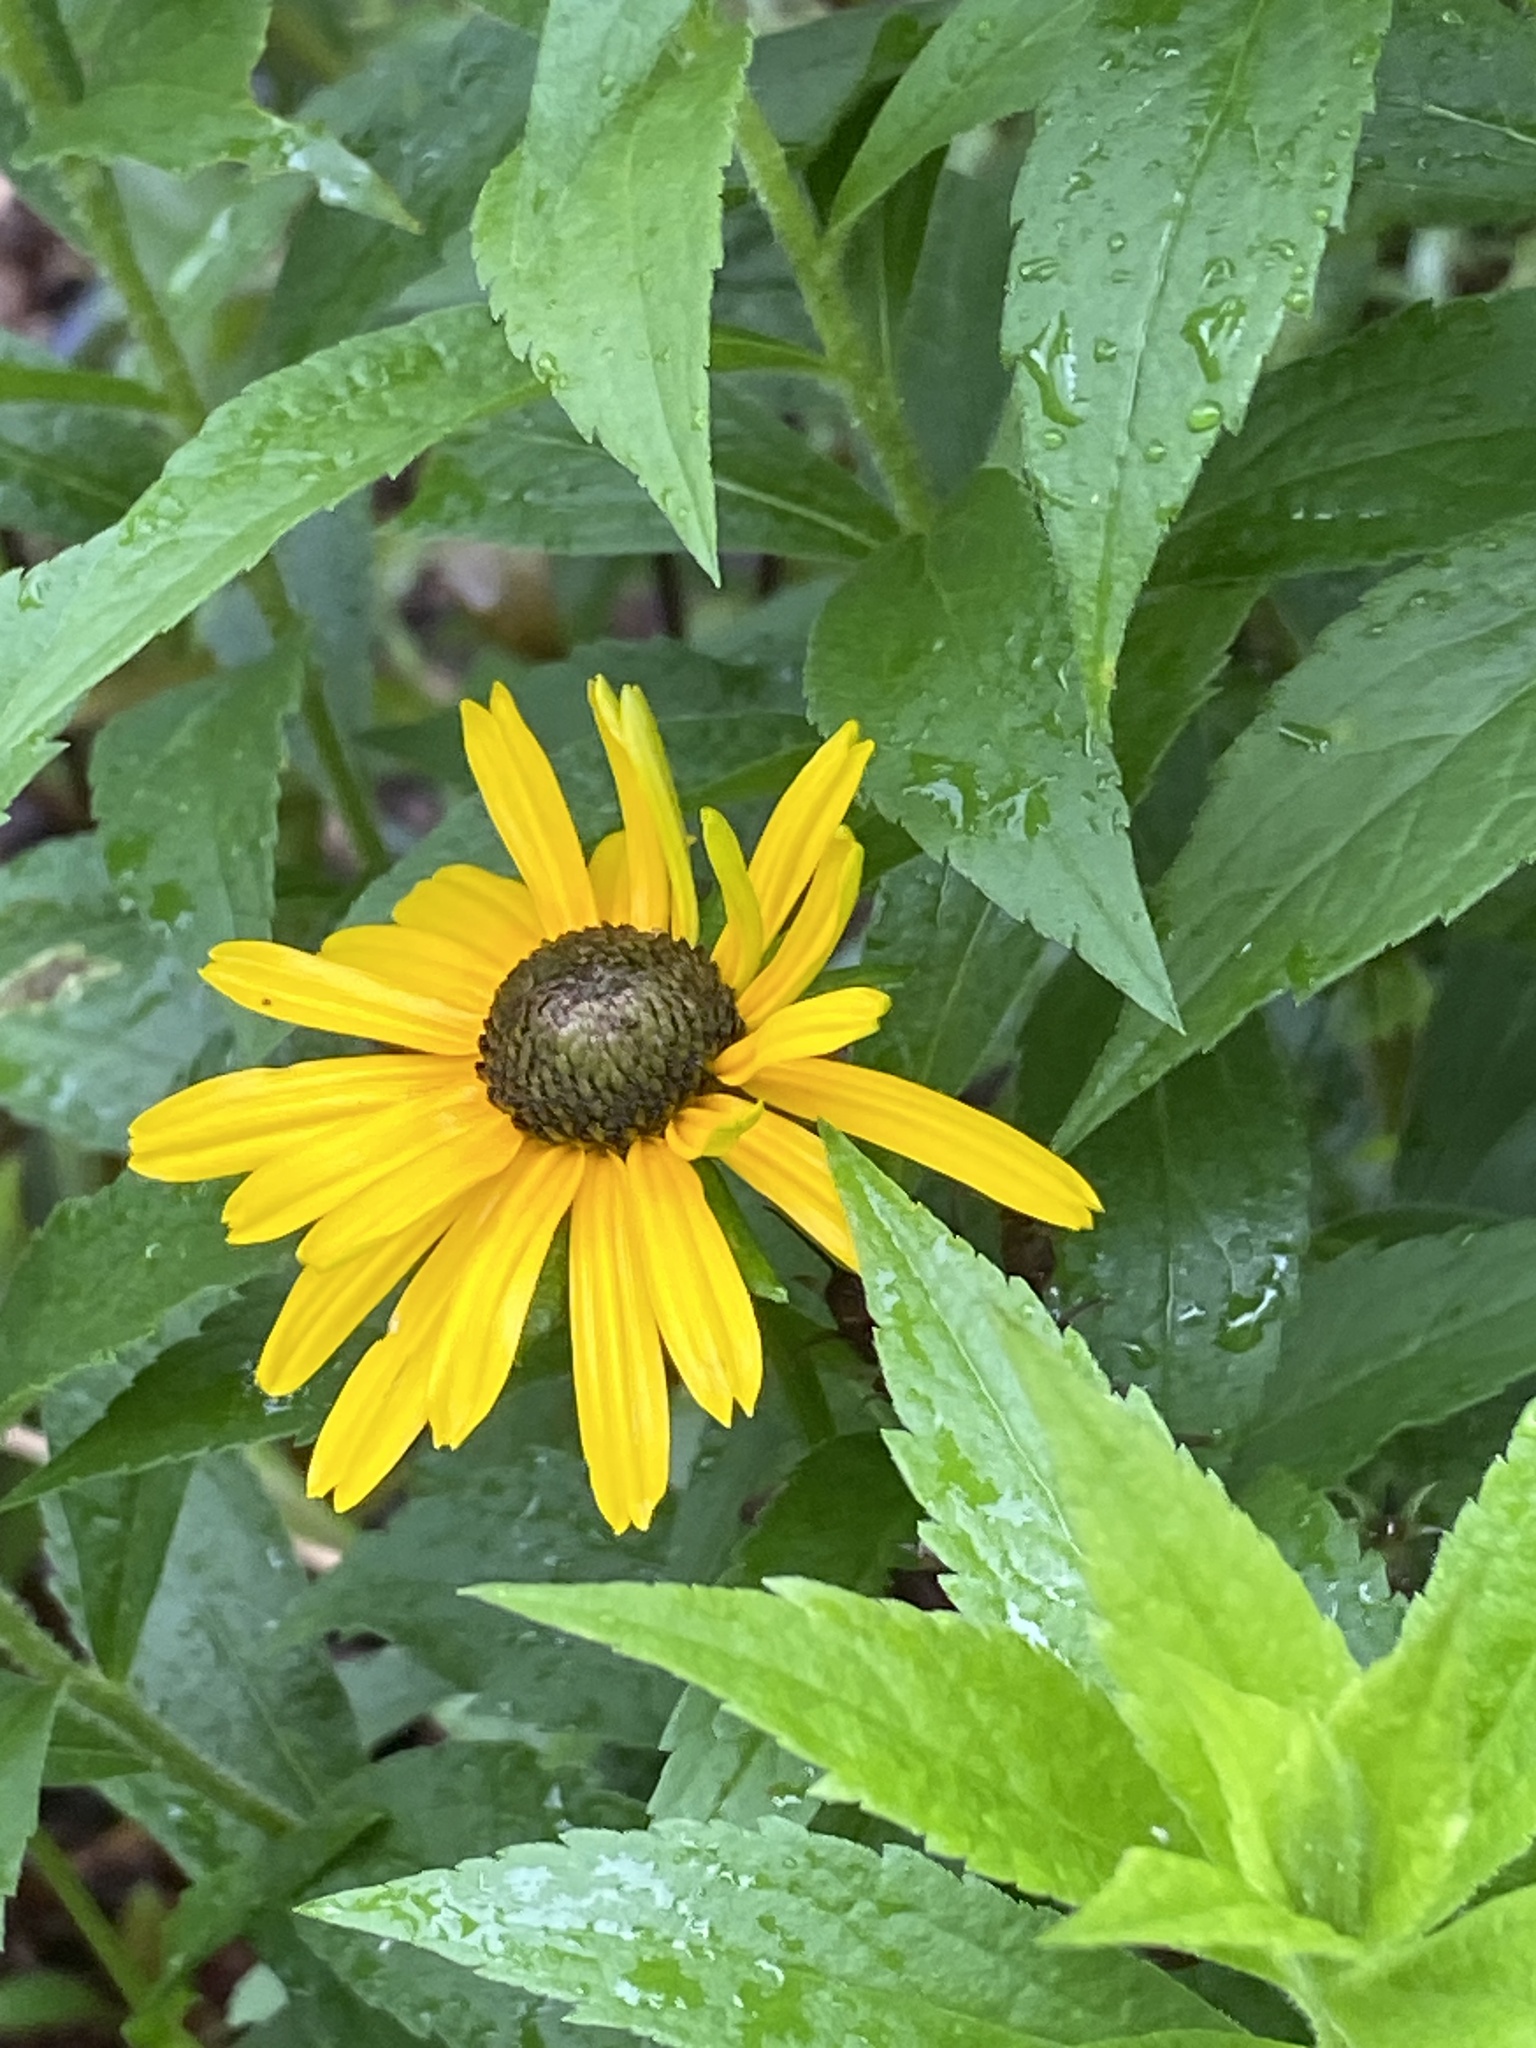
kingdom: Plantae
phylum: Tracheophyta
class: Magnoliopsida
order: Asterales
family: Asteraceae
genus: Rudbeckia
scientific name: Rudbeckia hirta
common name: Black-eyed-susan
